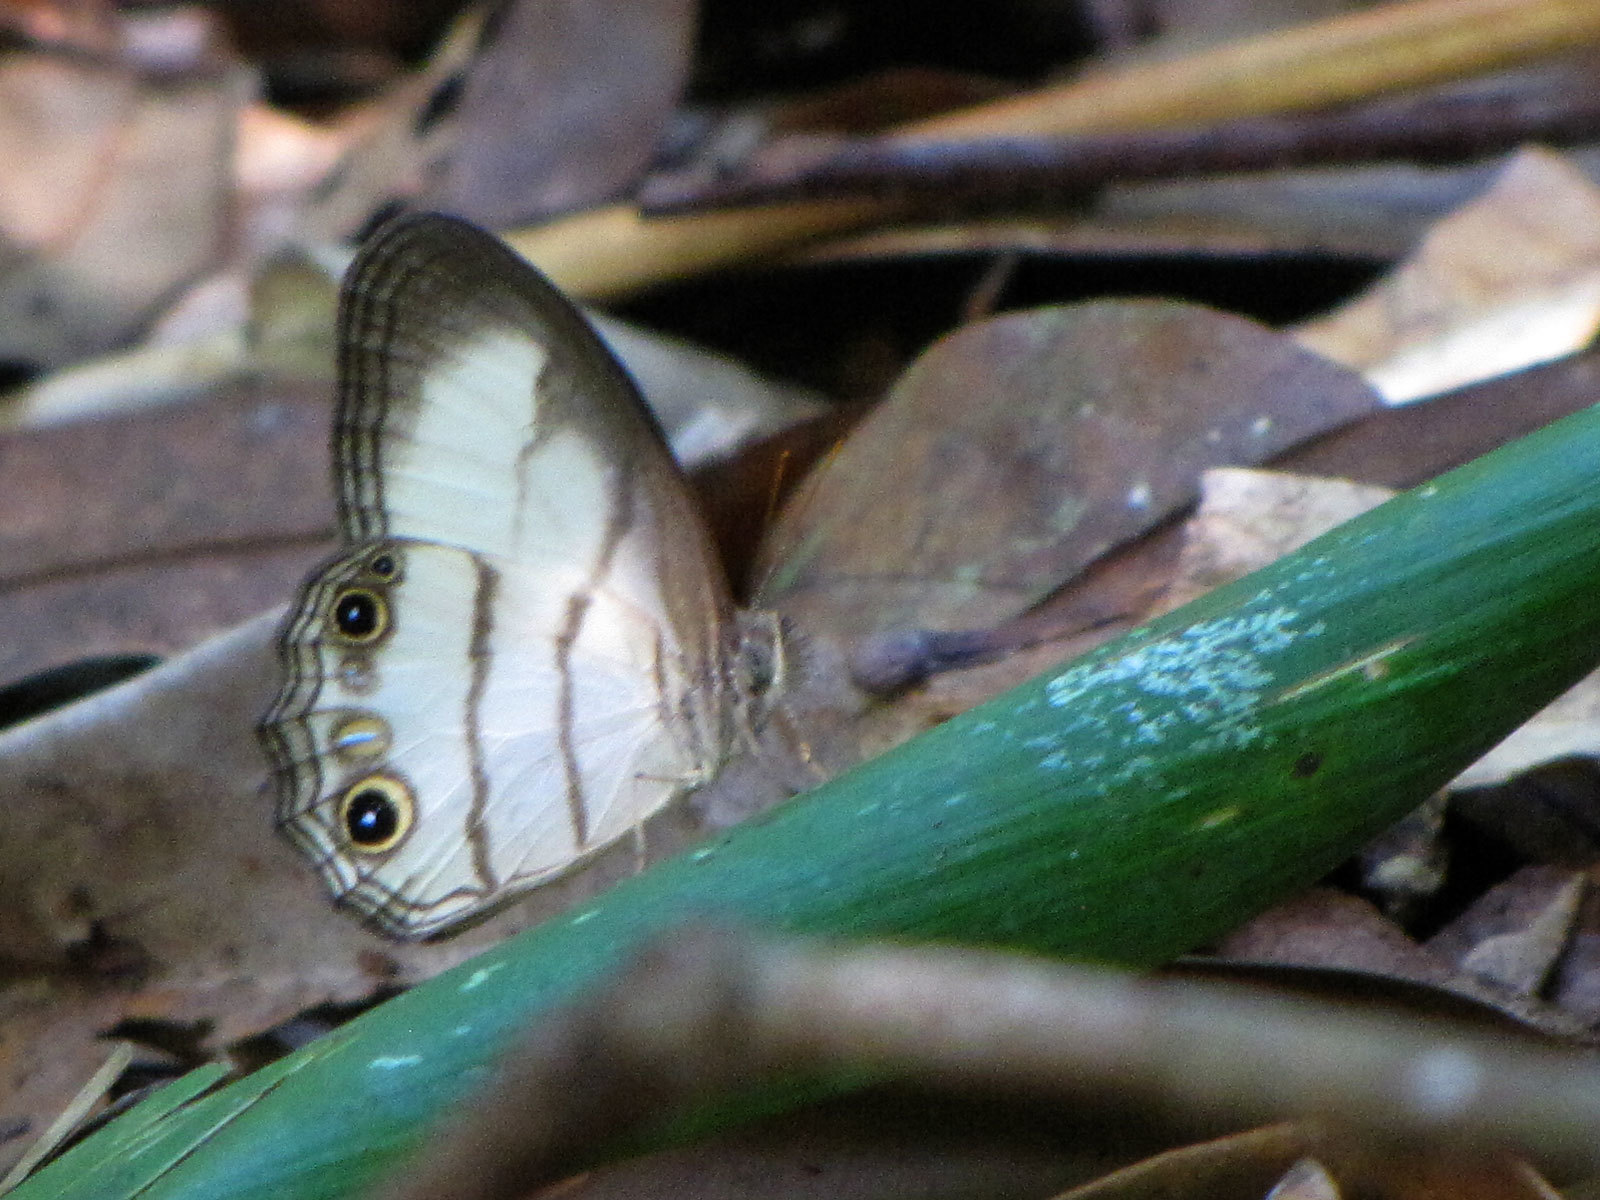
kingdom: Animalia
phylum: Arthropoda
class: Insecta
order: Lepidoptera
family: Nymphalidae
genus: Splendeuptychia
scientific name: Splendeuptychia
